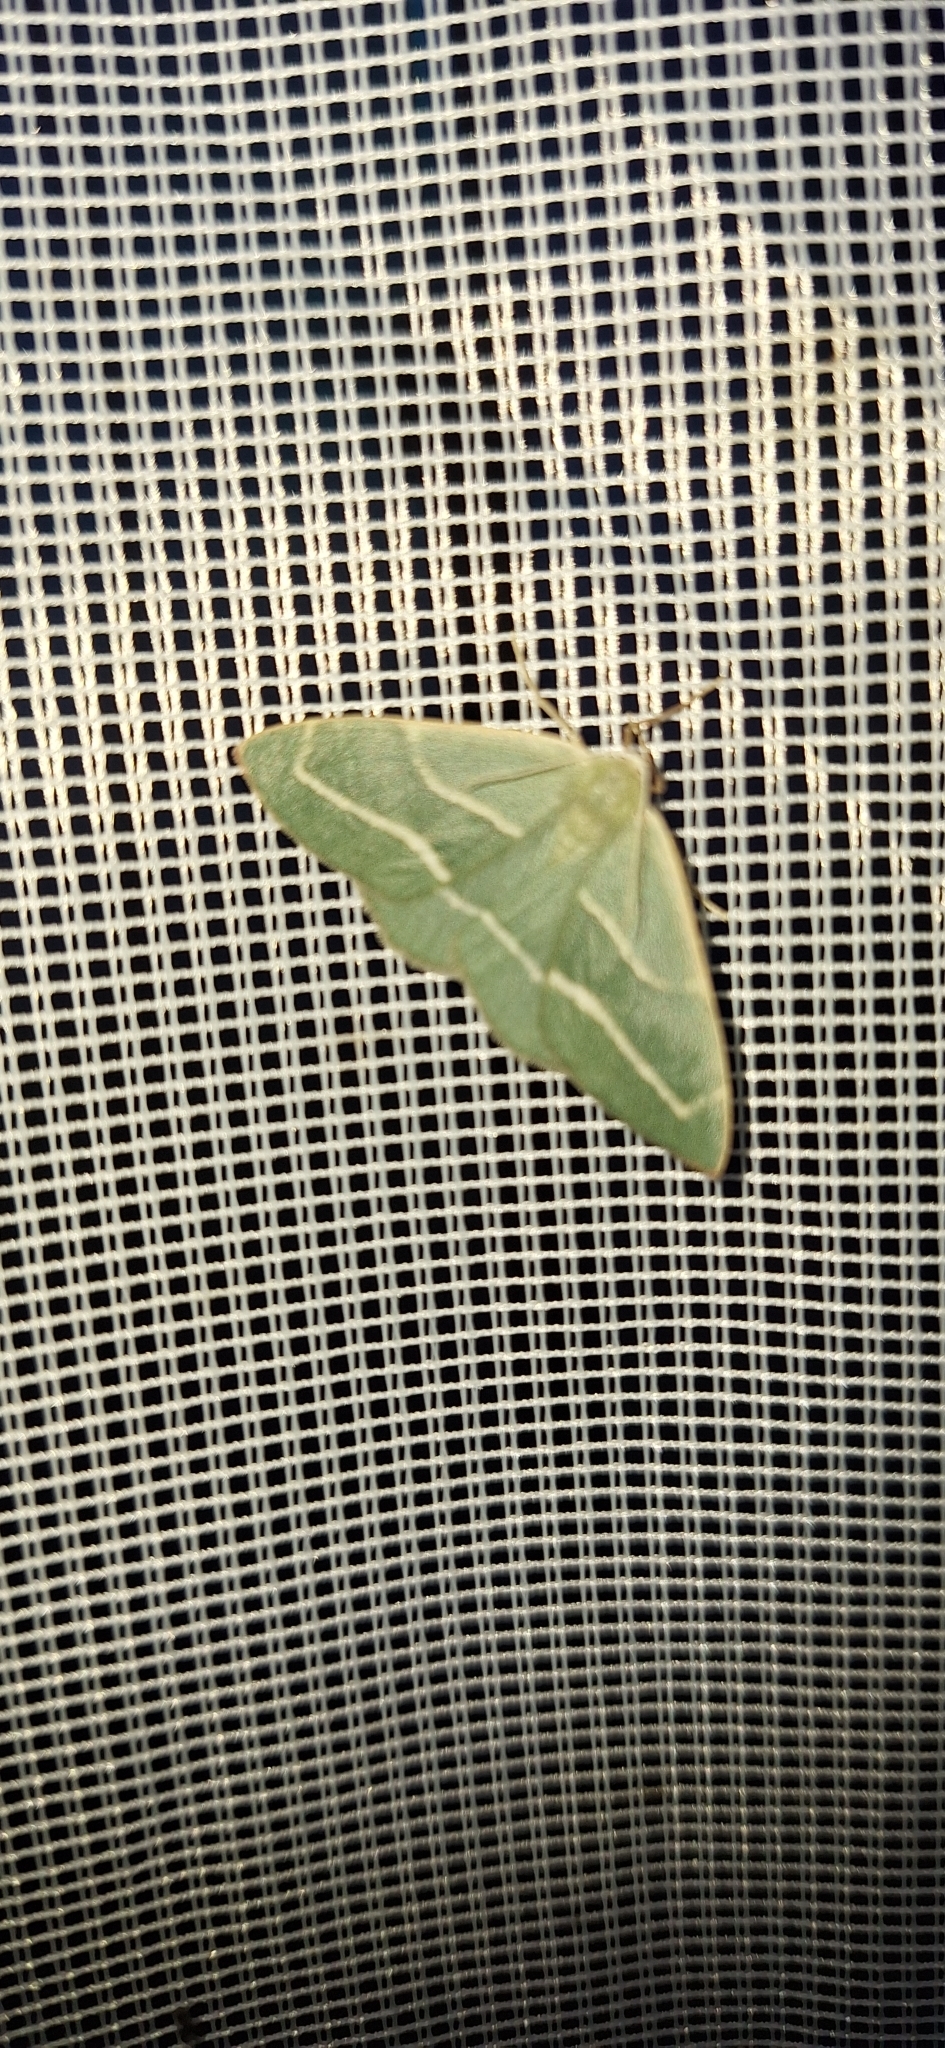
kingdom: Animalia
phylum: Arthropoda
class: Insecta
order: Lepidoptera
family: Geometridae
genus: Hylaea
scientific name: Hylaea fasciaria
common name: Barred red
